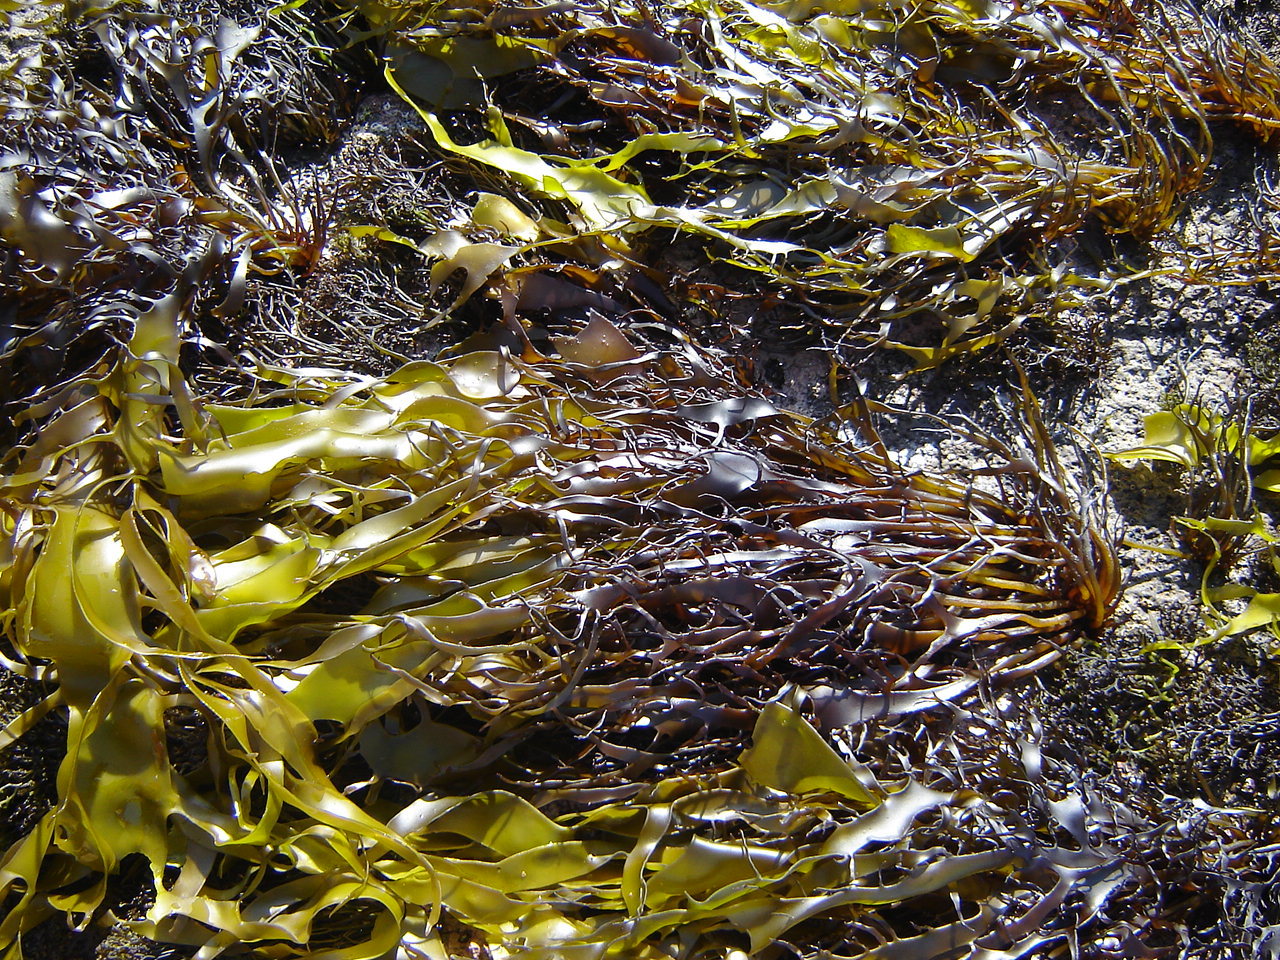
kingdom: Plantae
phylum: Rhodophyta
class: Florideophyceae
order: Halymeniales
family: Halymeniaceae
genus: Pachymenia
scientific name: Pachymenia lusoria
